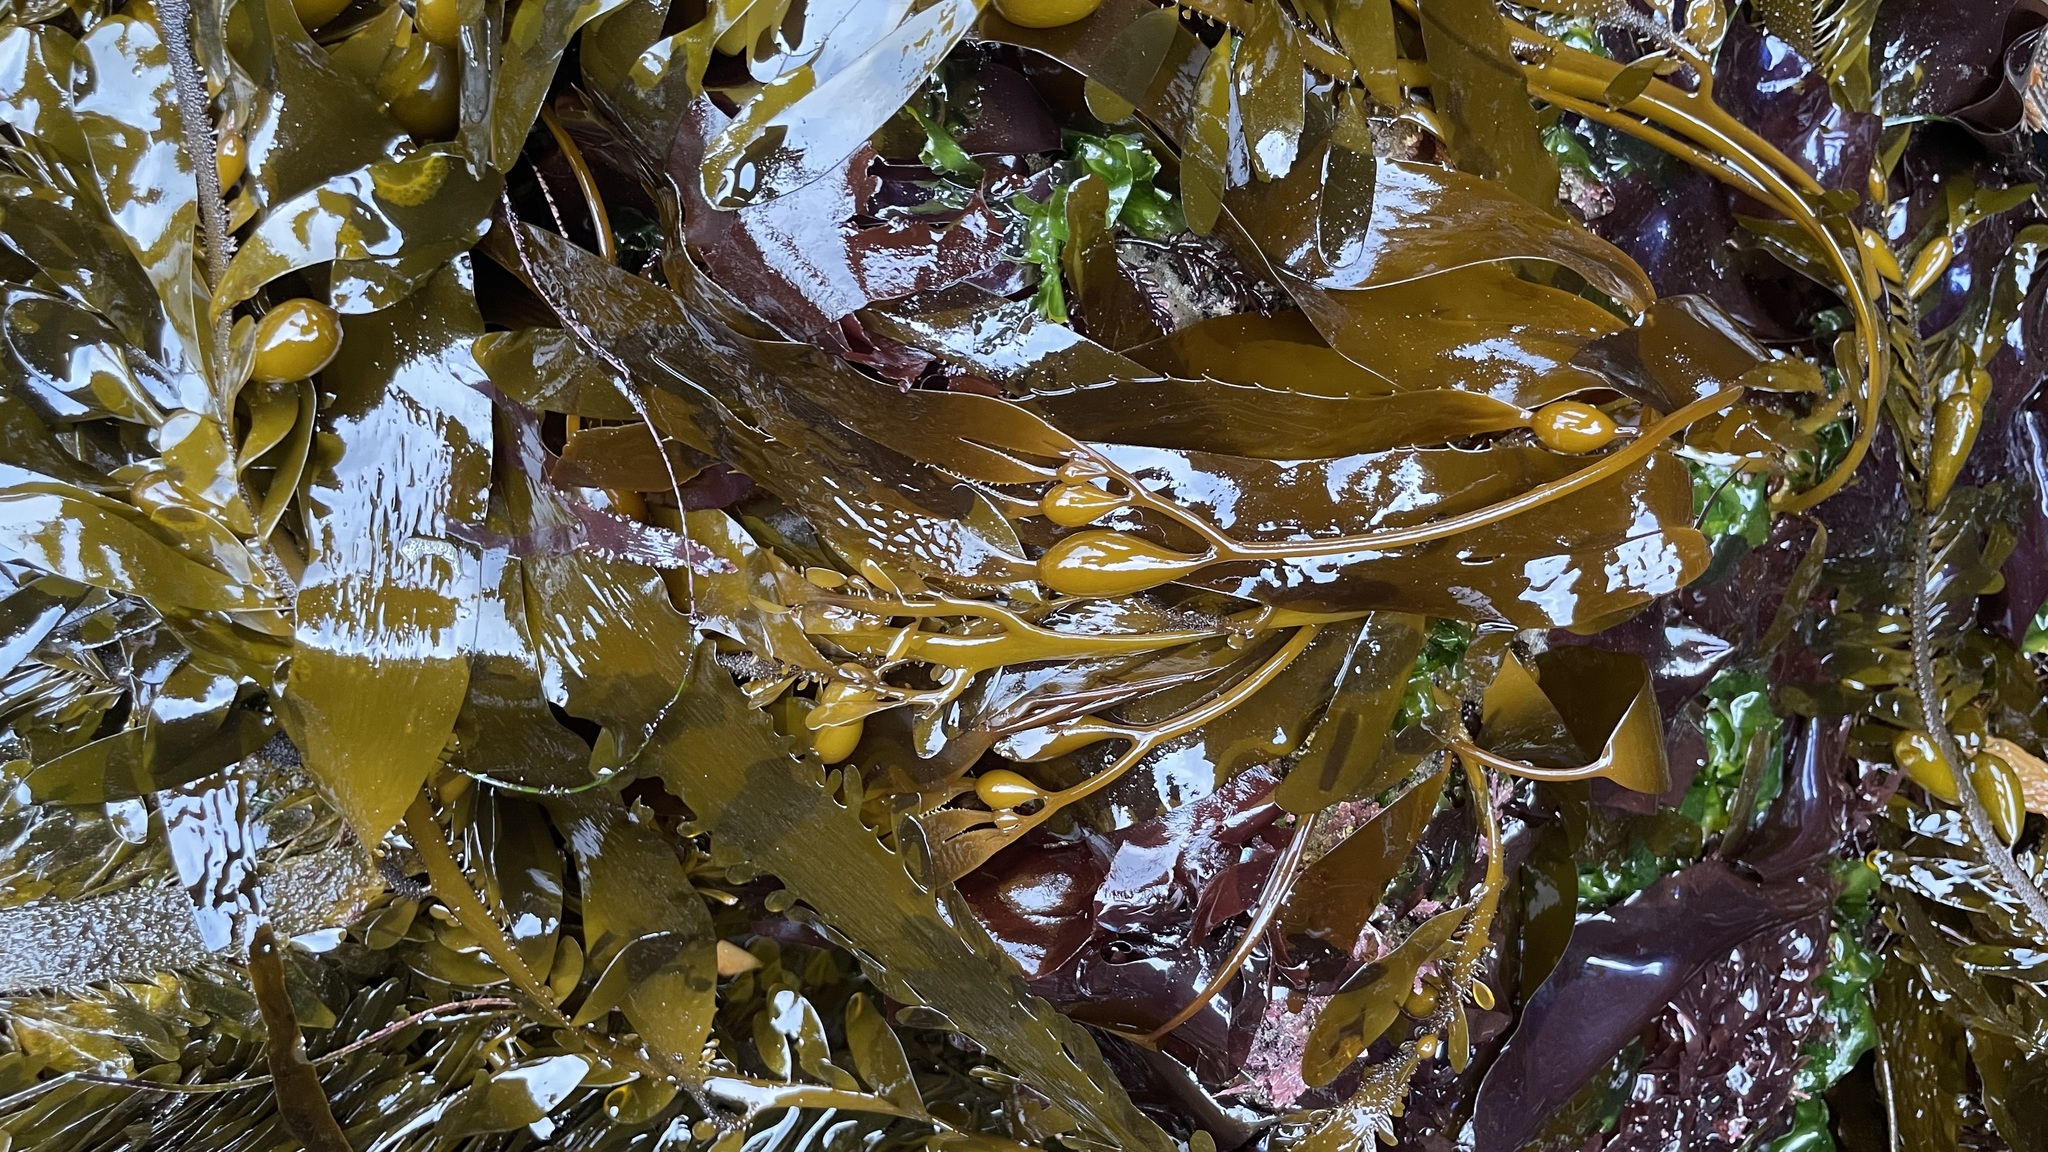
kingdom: Chromista
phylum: Ochrophyta
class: Phaeophyceae
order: Laminariales
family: Laminariaceae
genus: Macrocystis
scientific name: Macrocystis pyrifera
